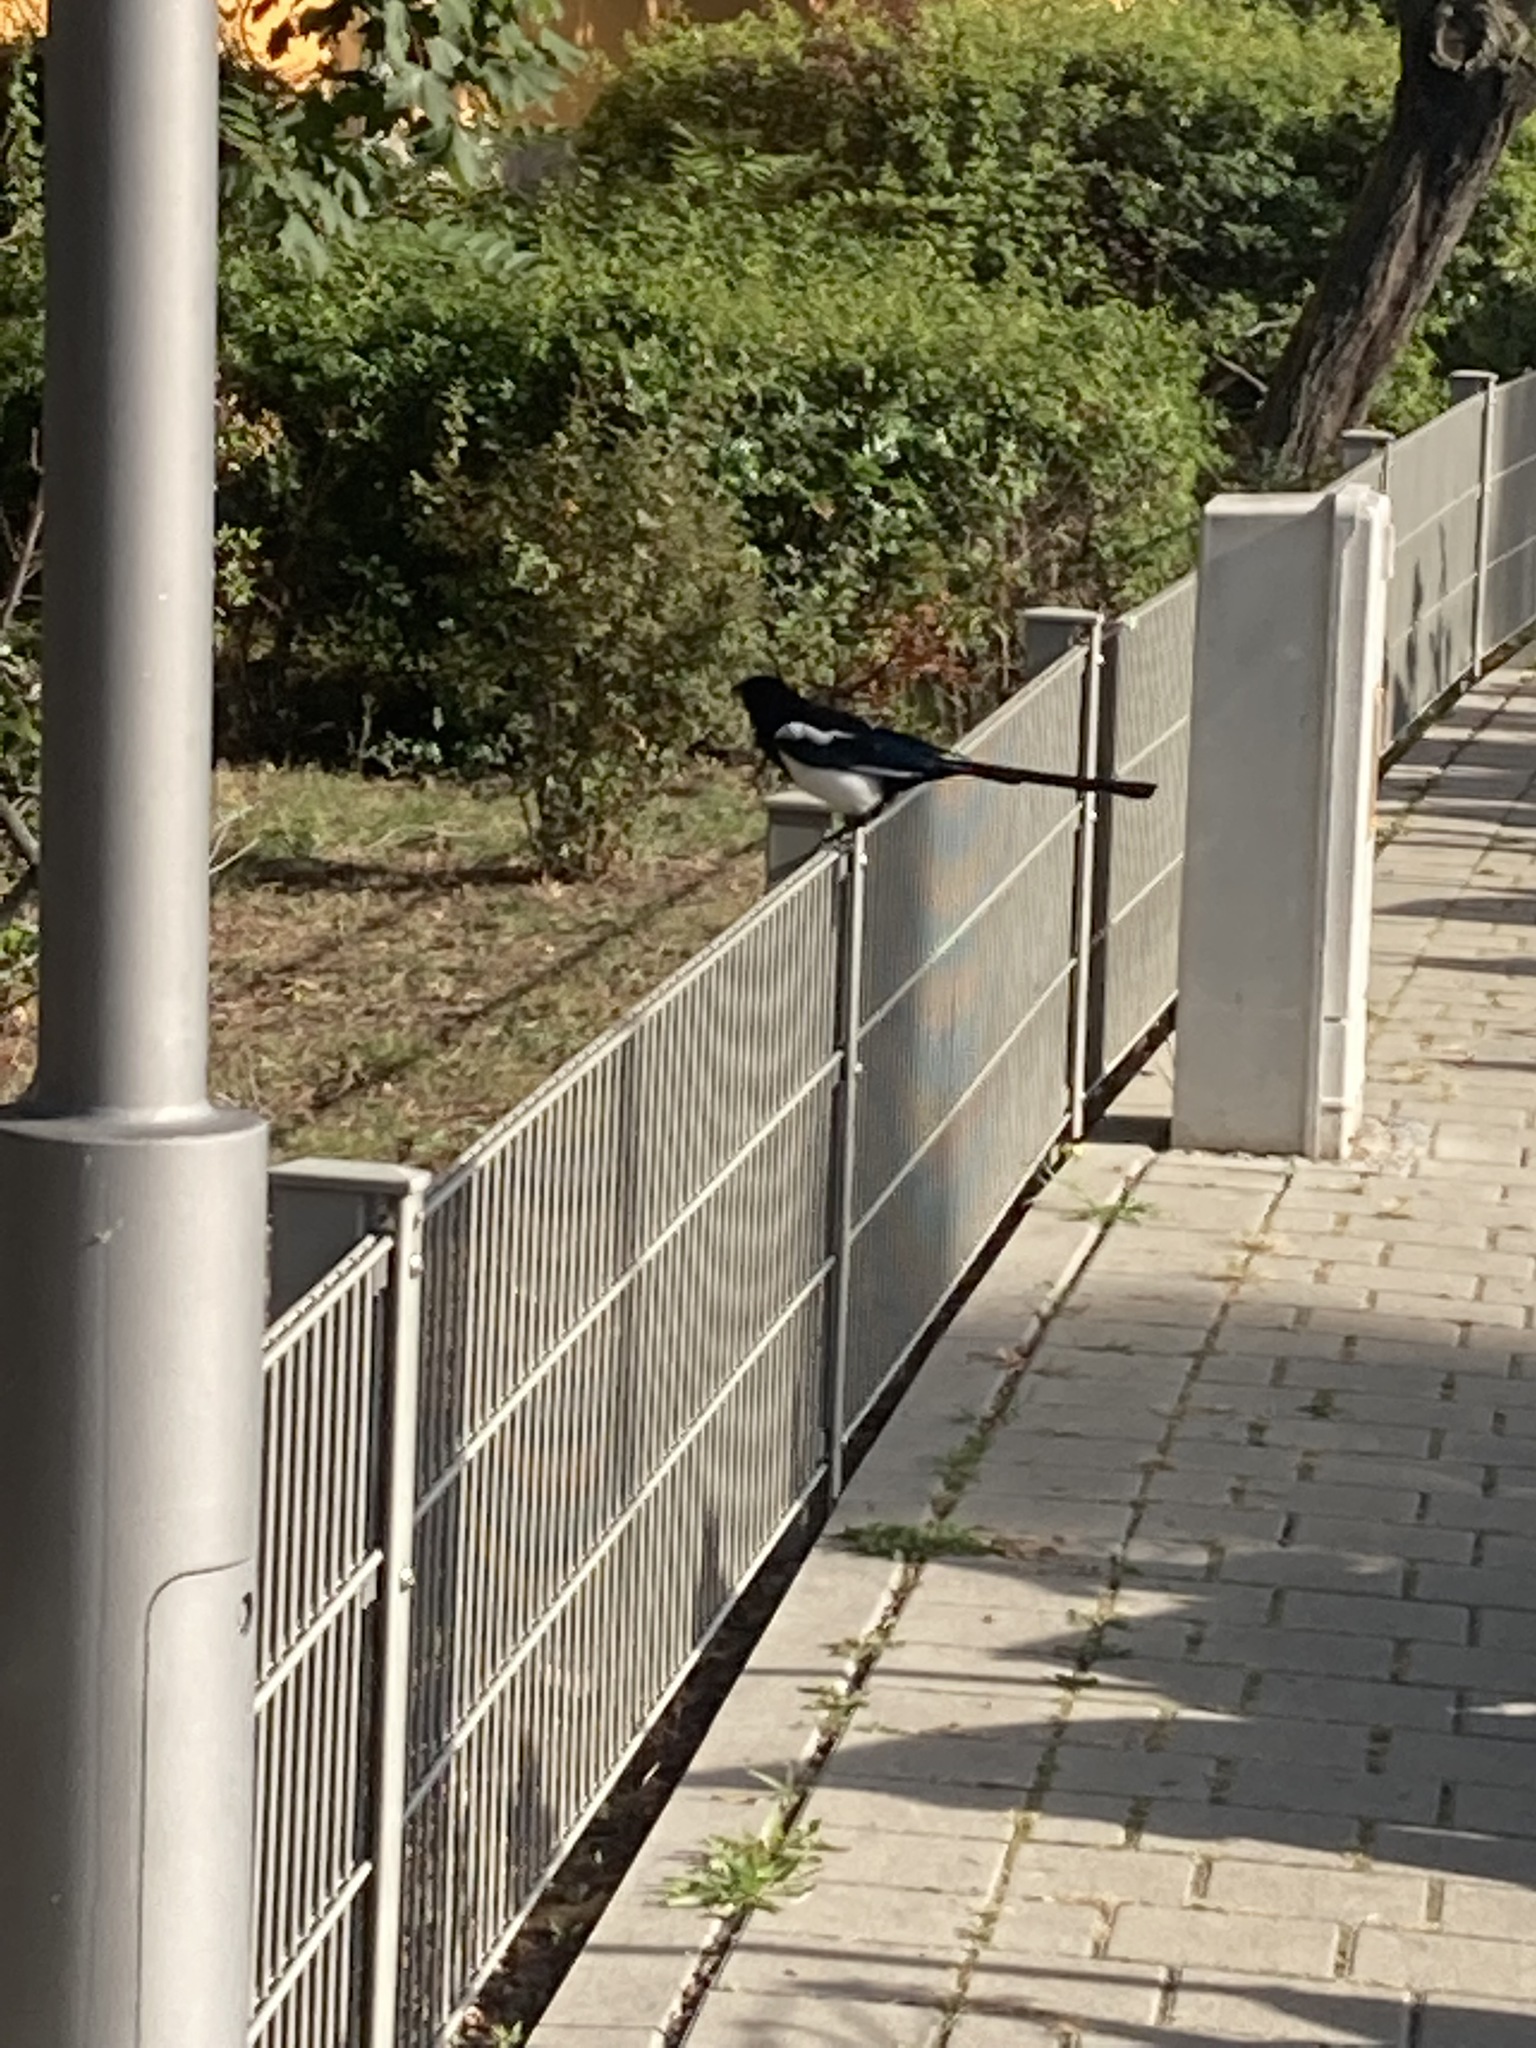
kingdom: Animalia
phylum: Chordata
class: Aves
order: Passeriformes
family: Corvidae
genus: Pica
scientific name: Pica pica
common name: Eurasian magpie
